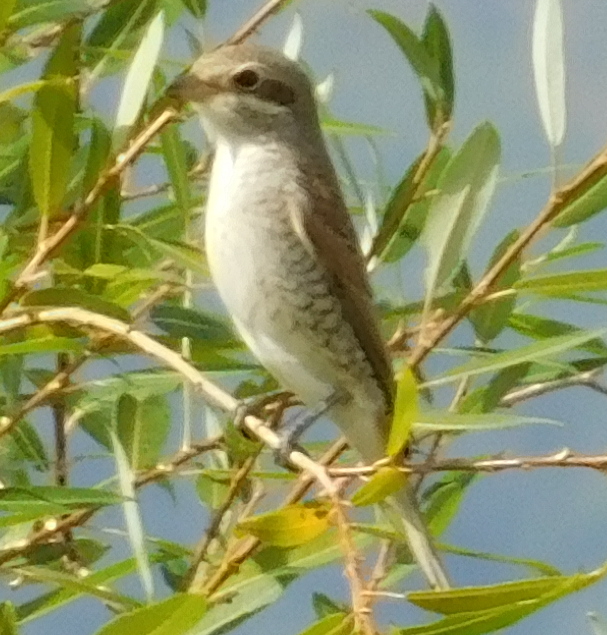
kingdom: Animalia
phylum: Chordata
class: Aves
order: Passeriformes
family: Laniidae
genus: Lanius
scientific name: Lanius collurio
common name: Red-backed shrike
